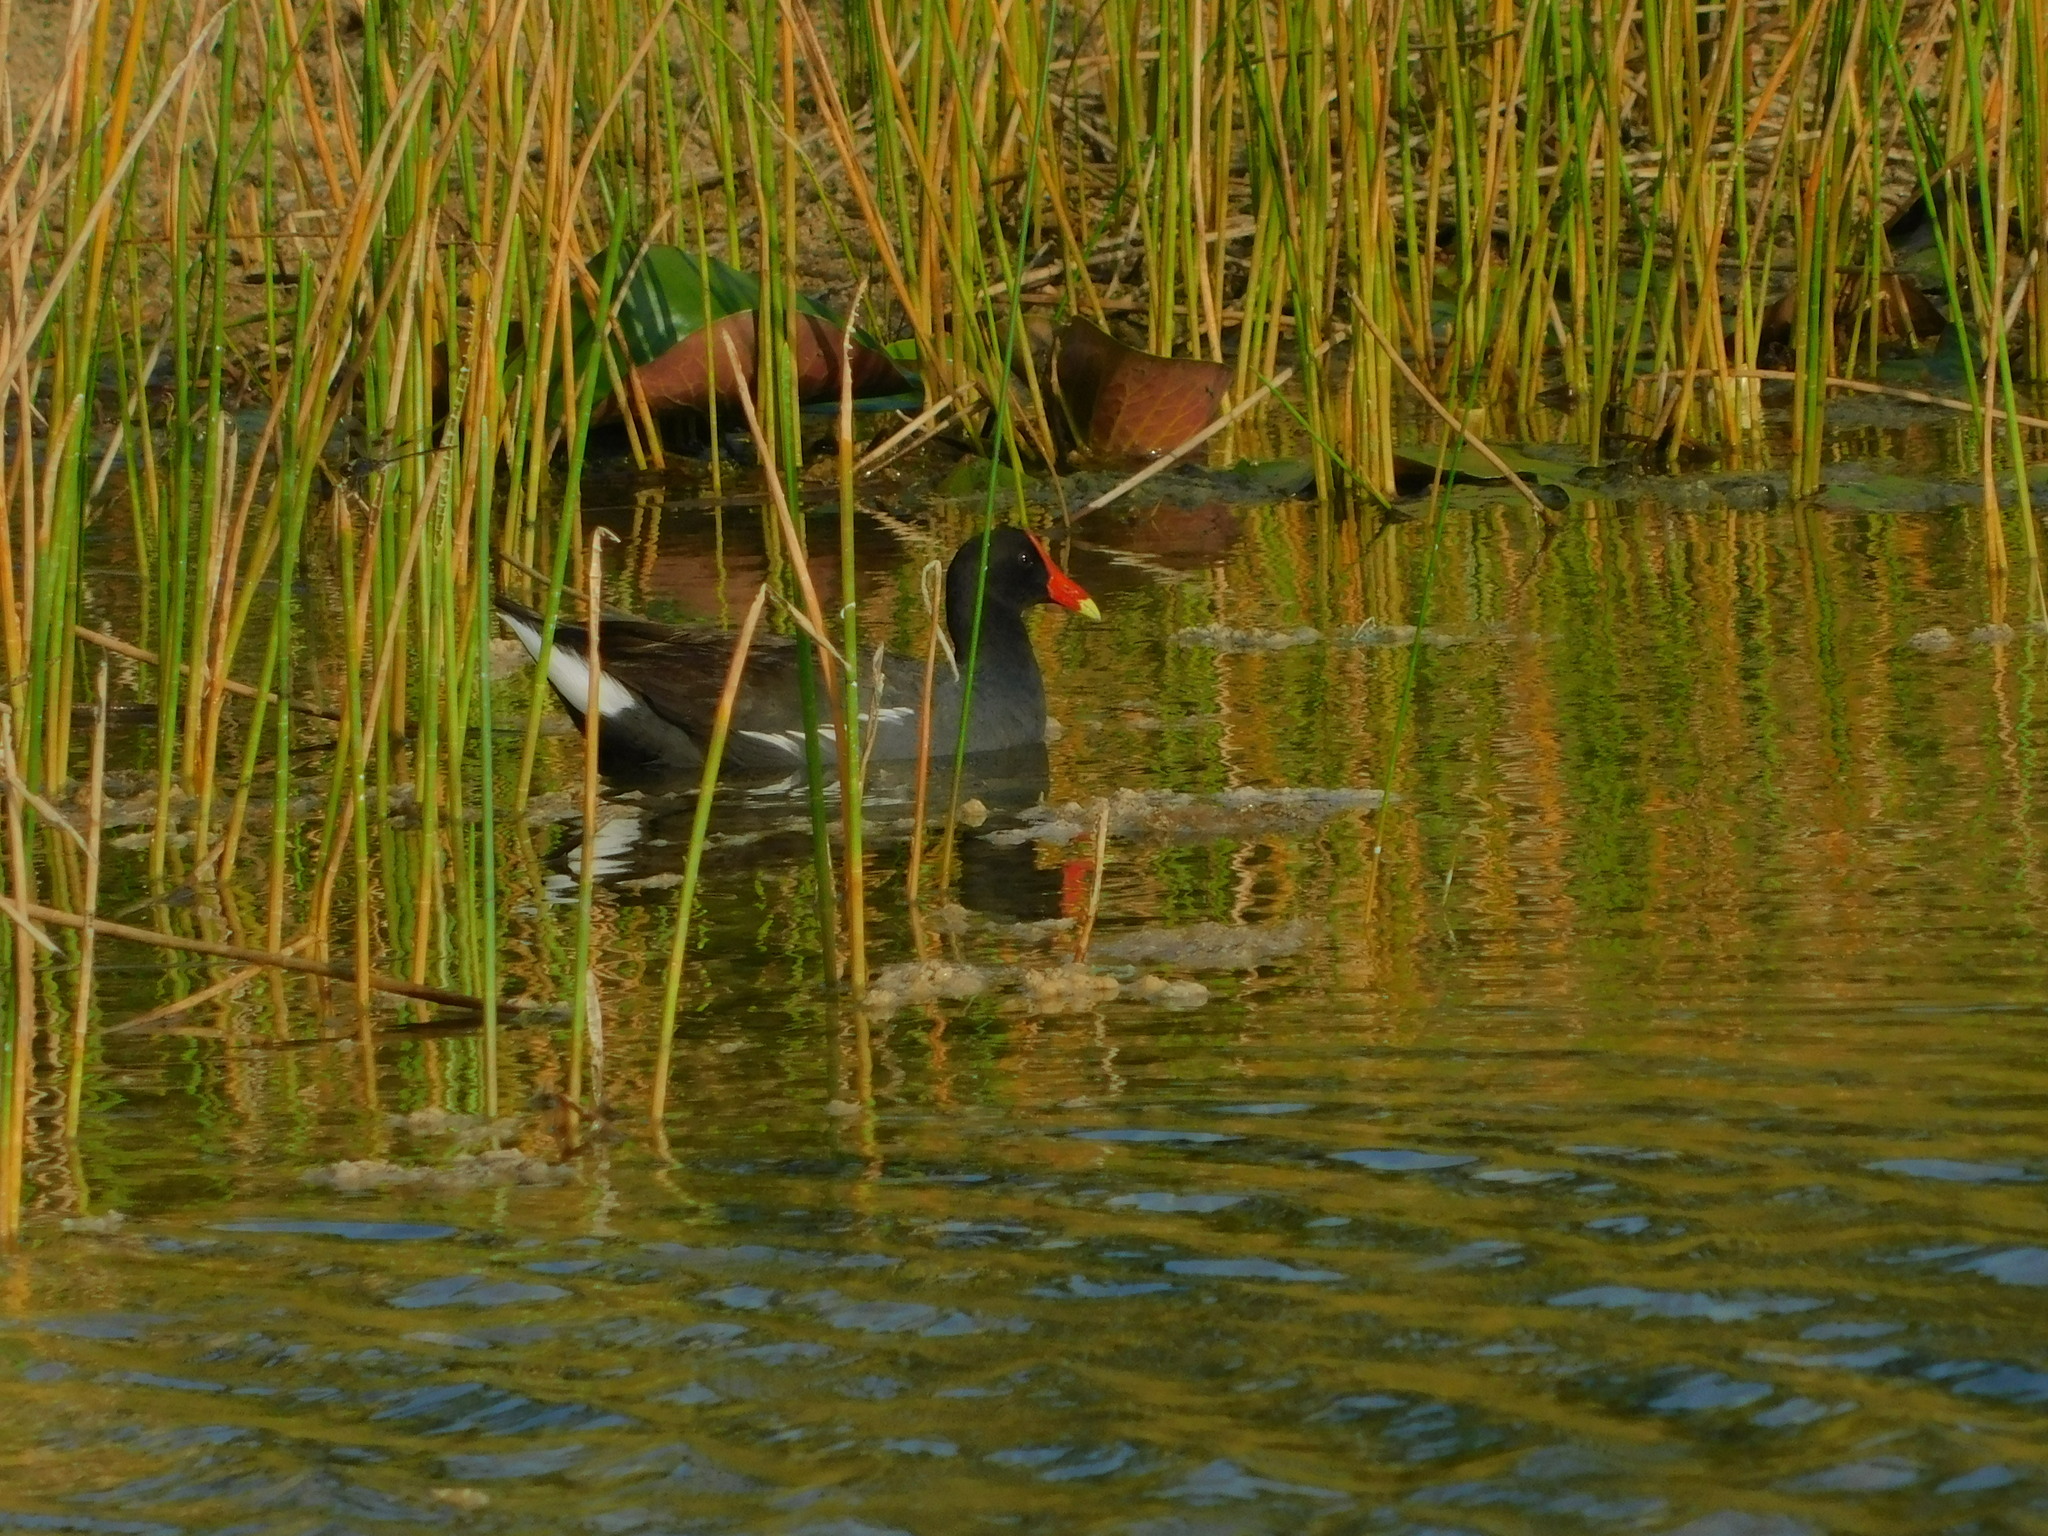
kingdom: Animalia
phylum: Chordata
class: Aves
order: Gruiformes
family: Rallidae
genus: Gallinula
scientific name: Gallinula chloropus
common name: Common moorhen
